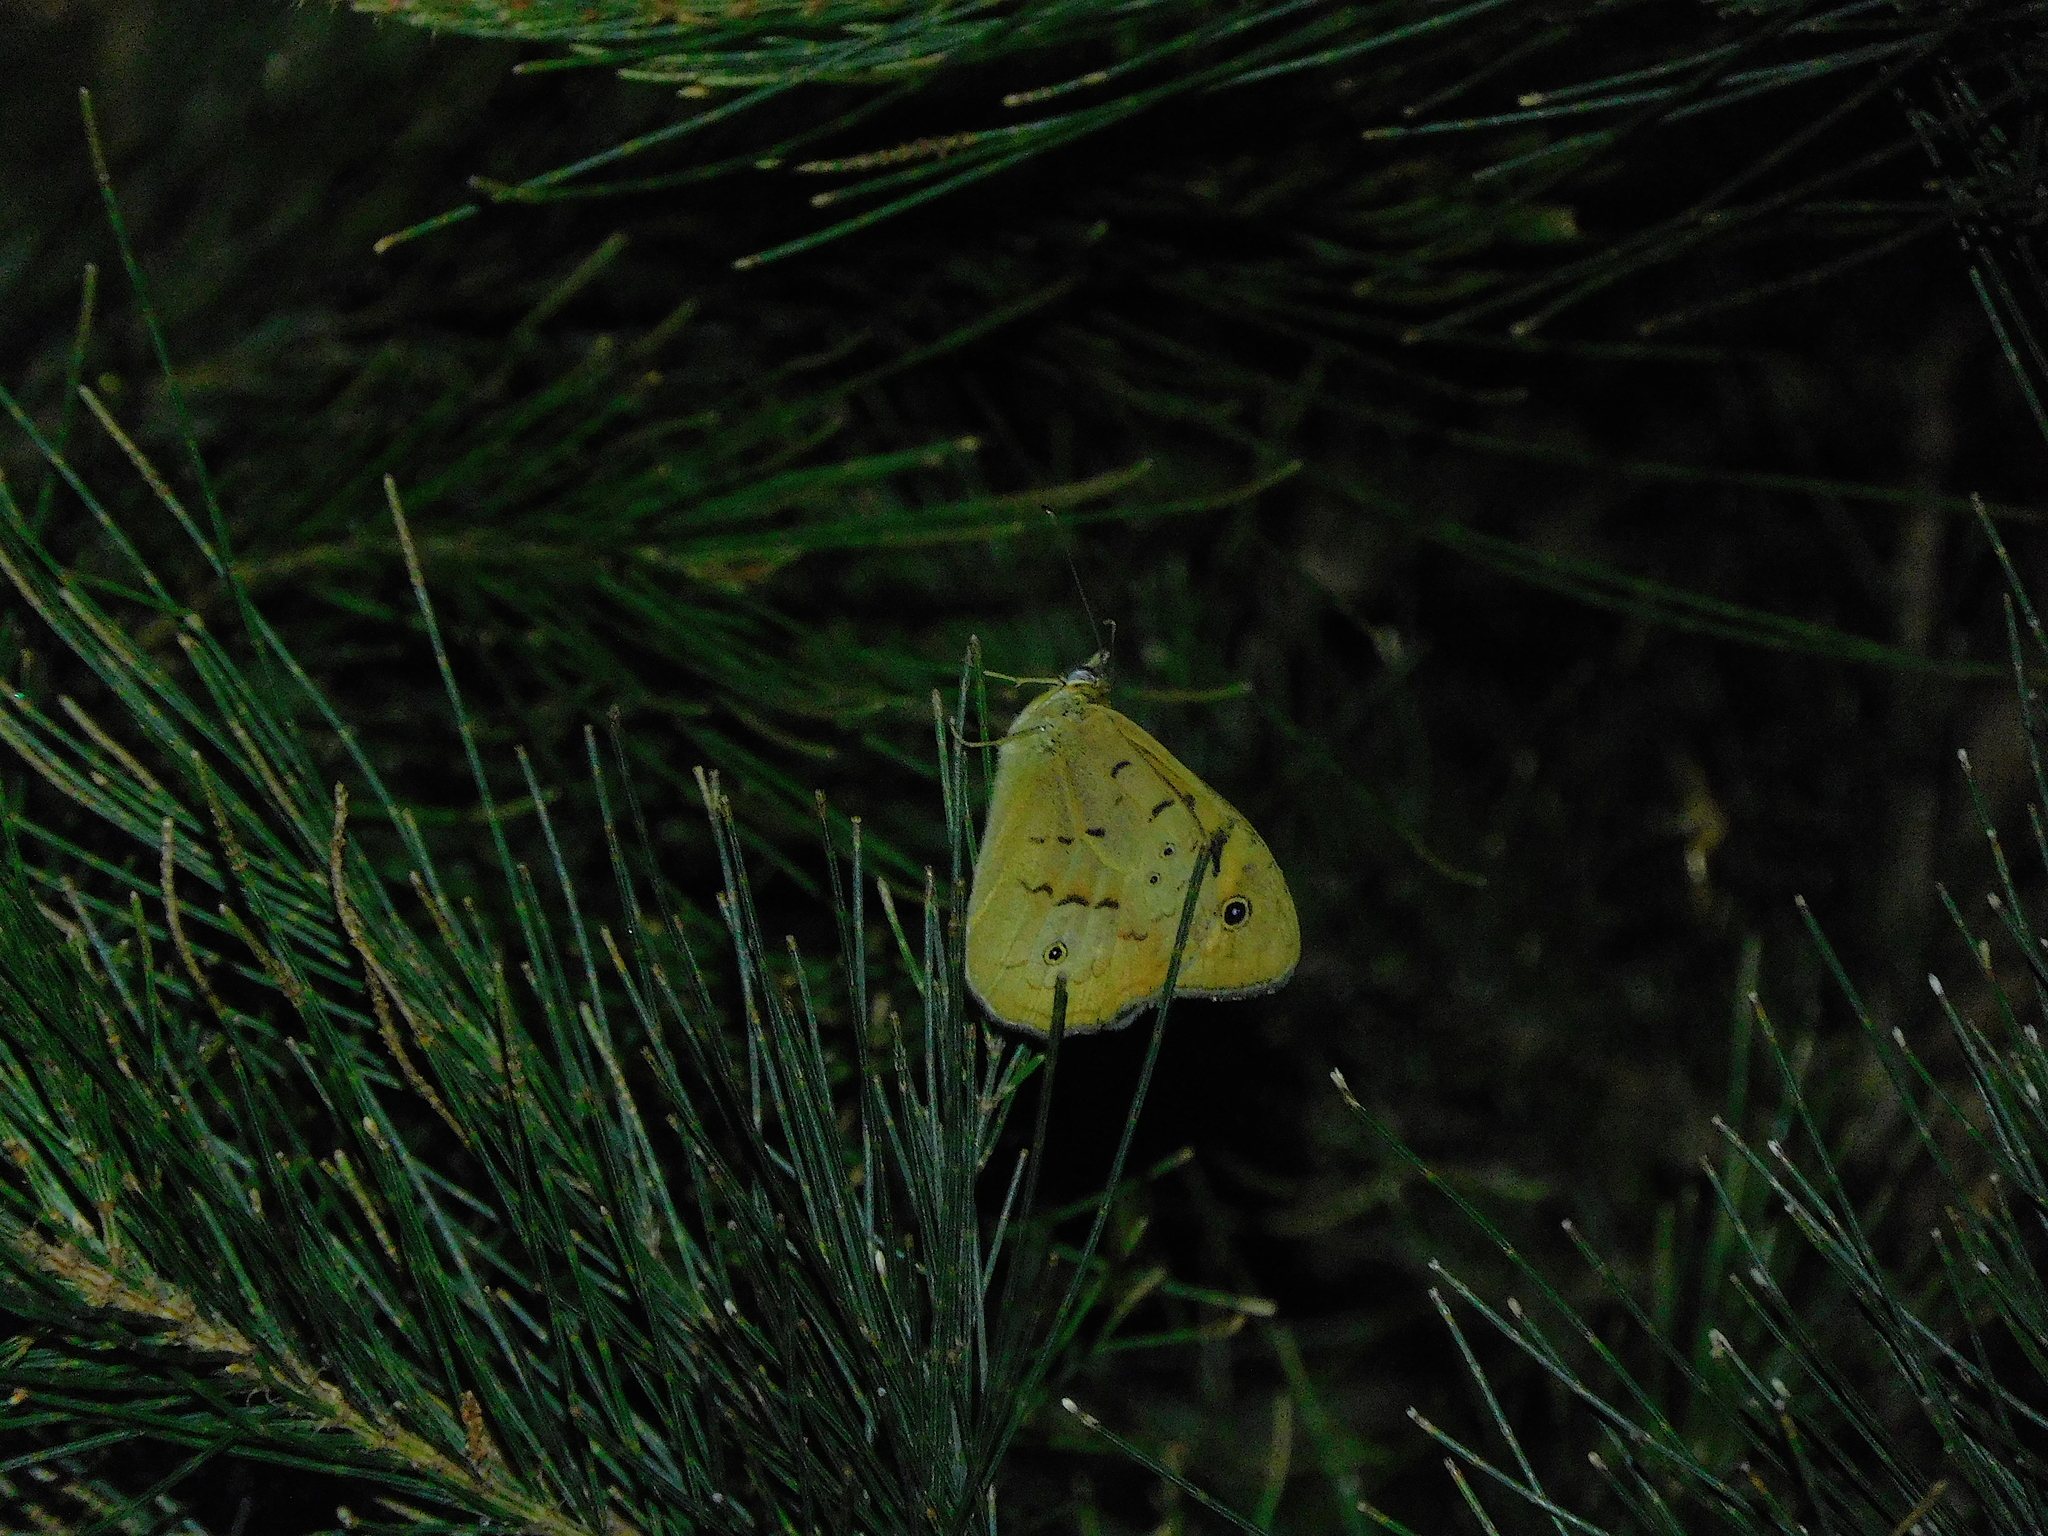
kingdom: Animalia
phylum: Arthropoda
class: Insecta
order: Lepidoptera
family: Nymphalidae
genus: Heteronympha
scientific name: Heteronympha merope
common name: Common brown
